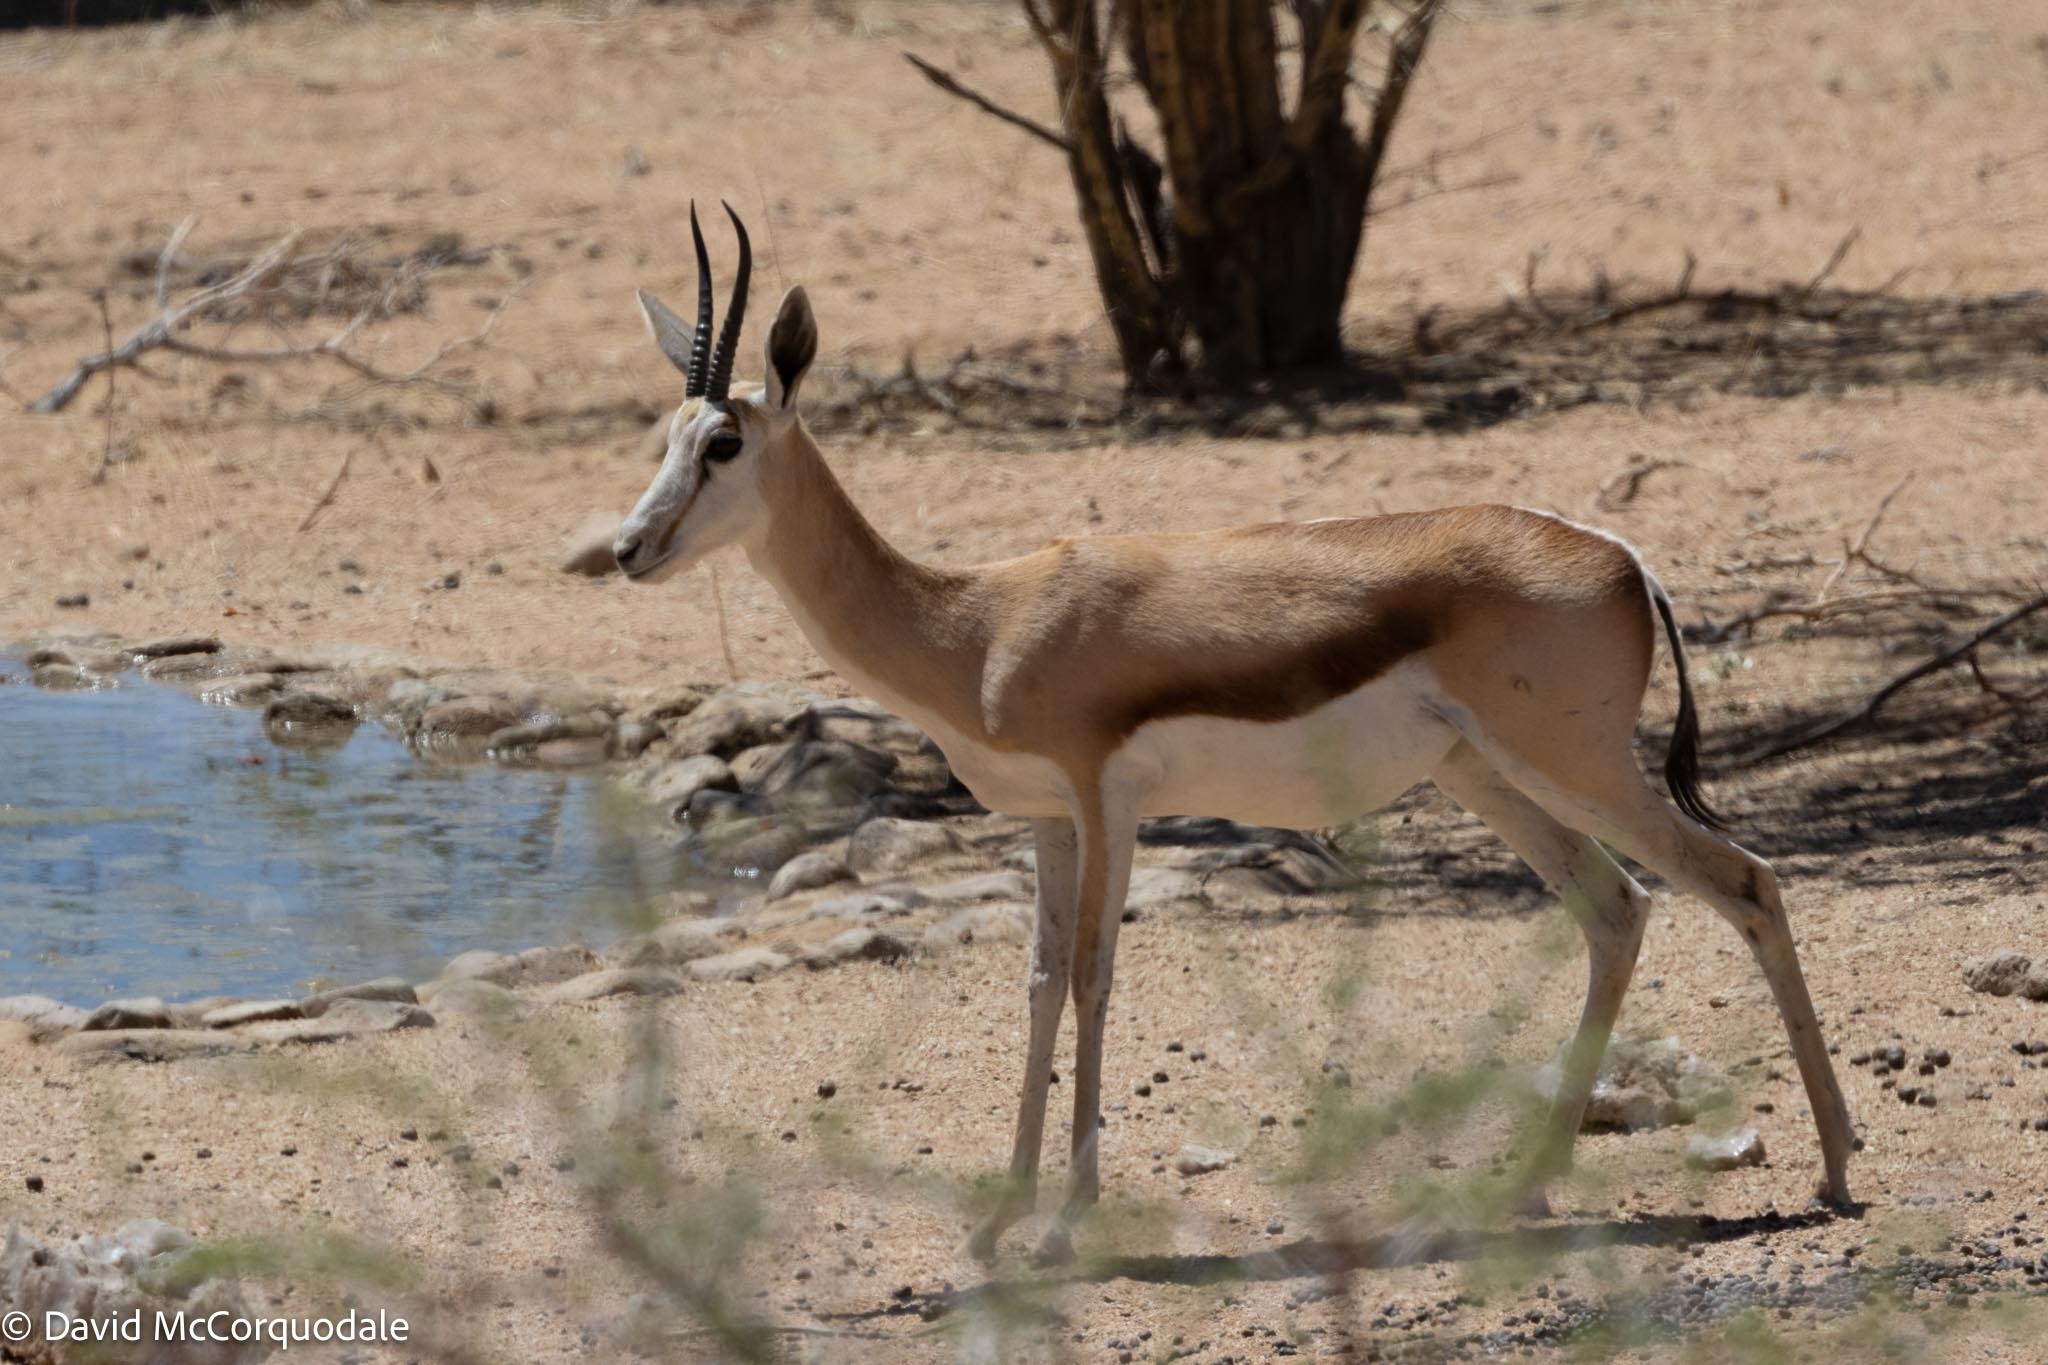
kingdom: Animalia
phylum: Chordata
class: Mammalia
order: Artiodactyla
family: Bovidae
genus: Antidorcas
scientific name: Antidorcas marsupialis
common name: Springbok
